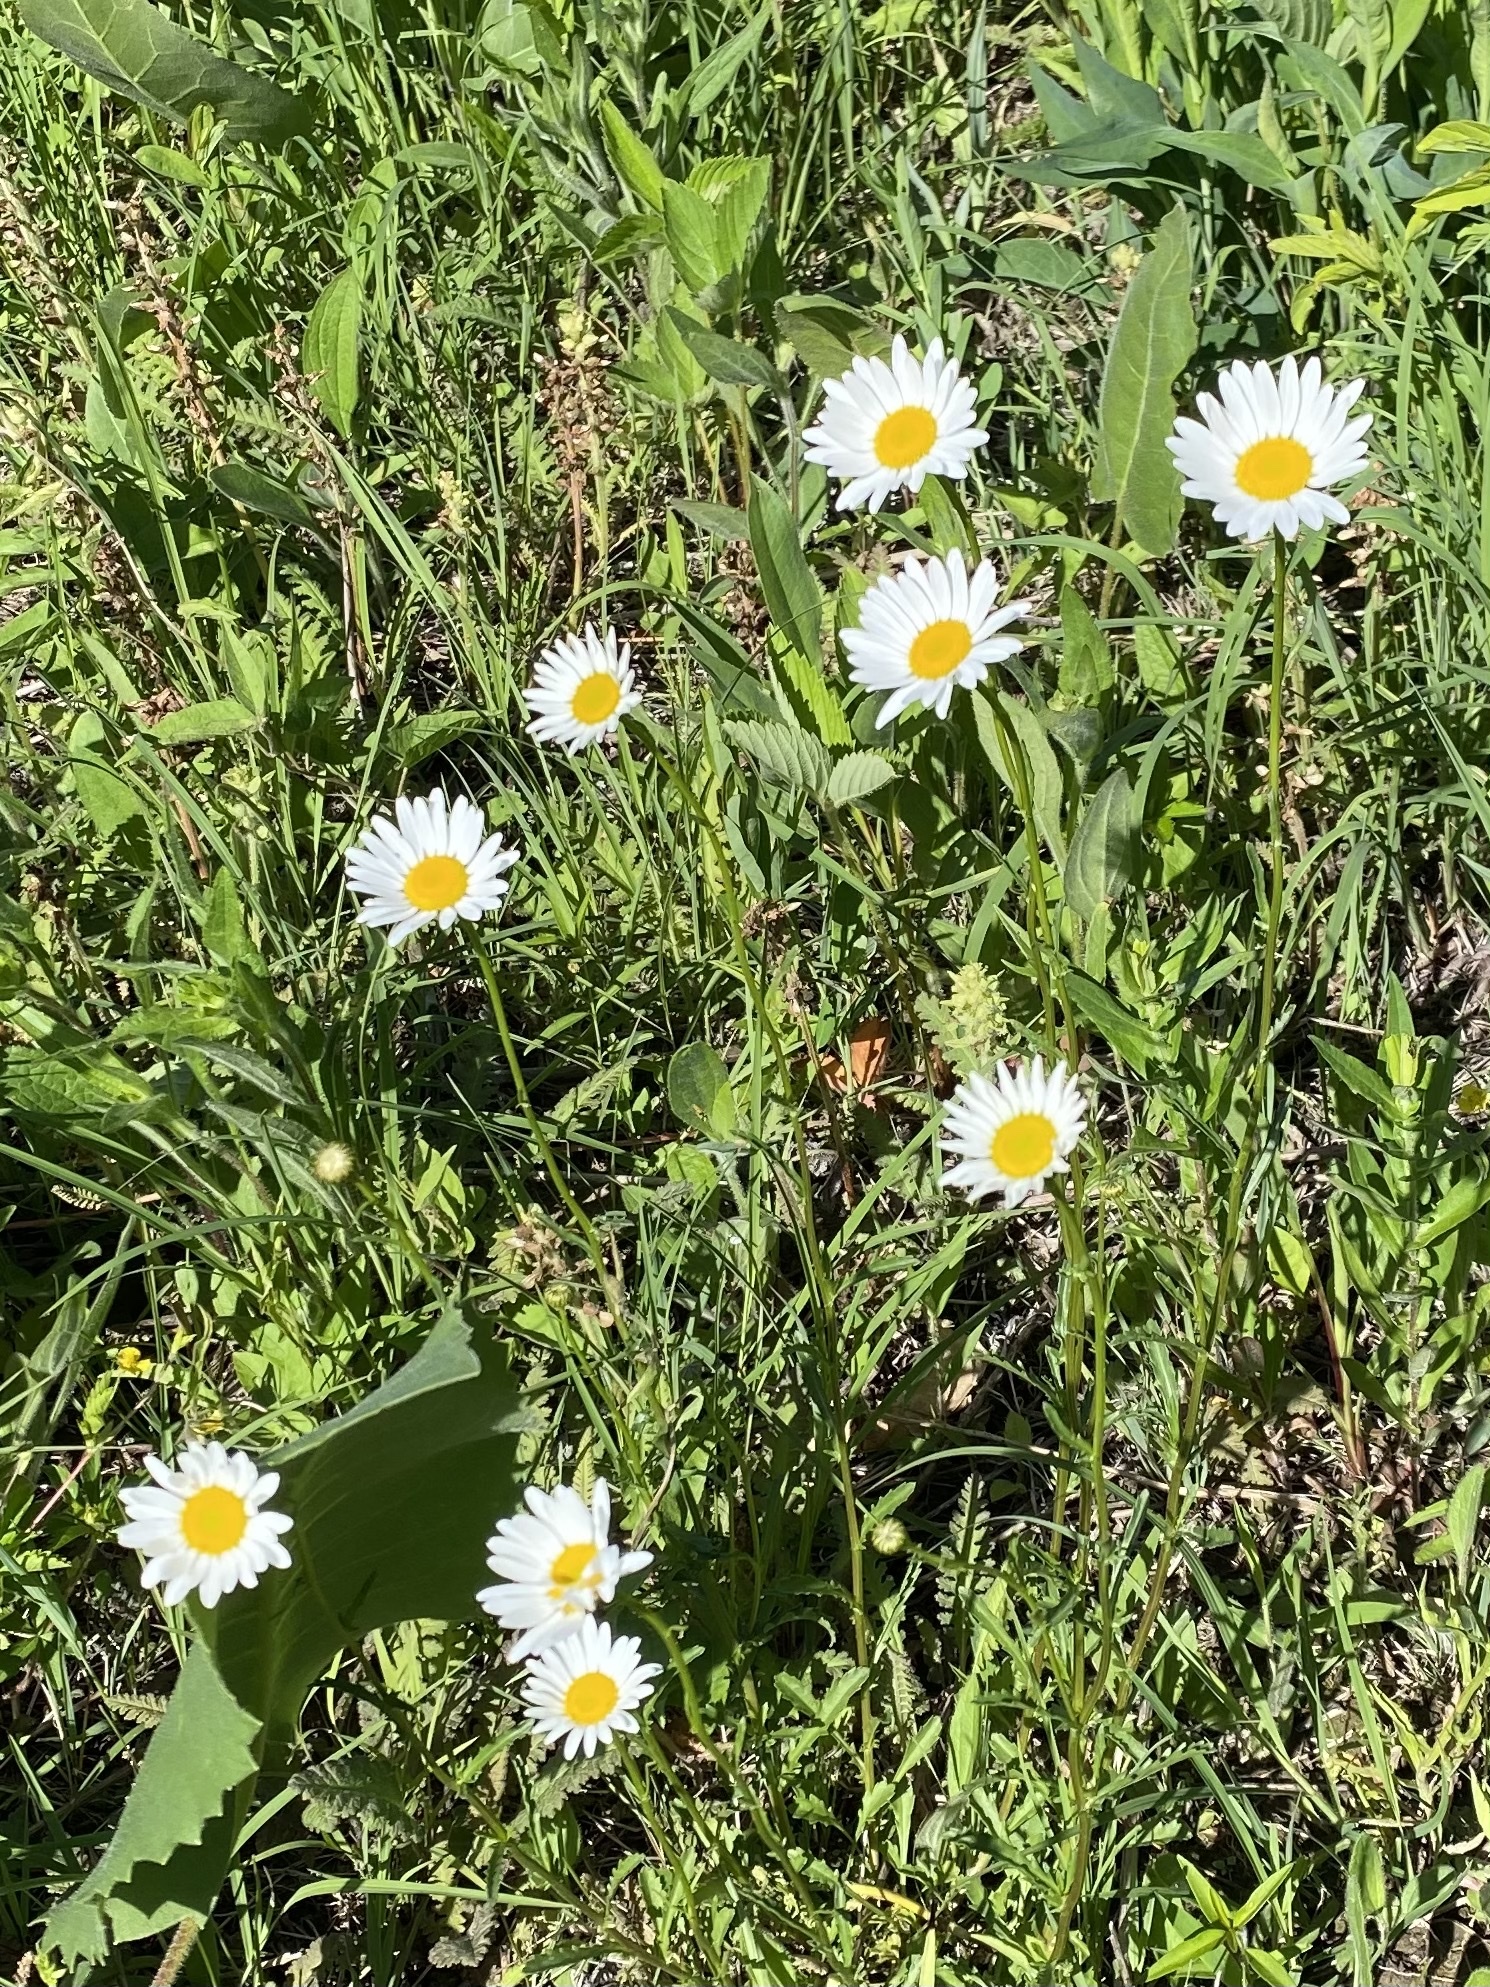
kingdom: Plantae
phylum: Tracheophyta
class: Magnoliopsida
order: Asterales
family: Asteraceae
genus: Leucanthemum
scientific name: Leucanthemum vulgare
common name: Oxeye daisy
